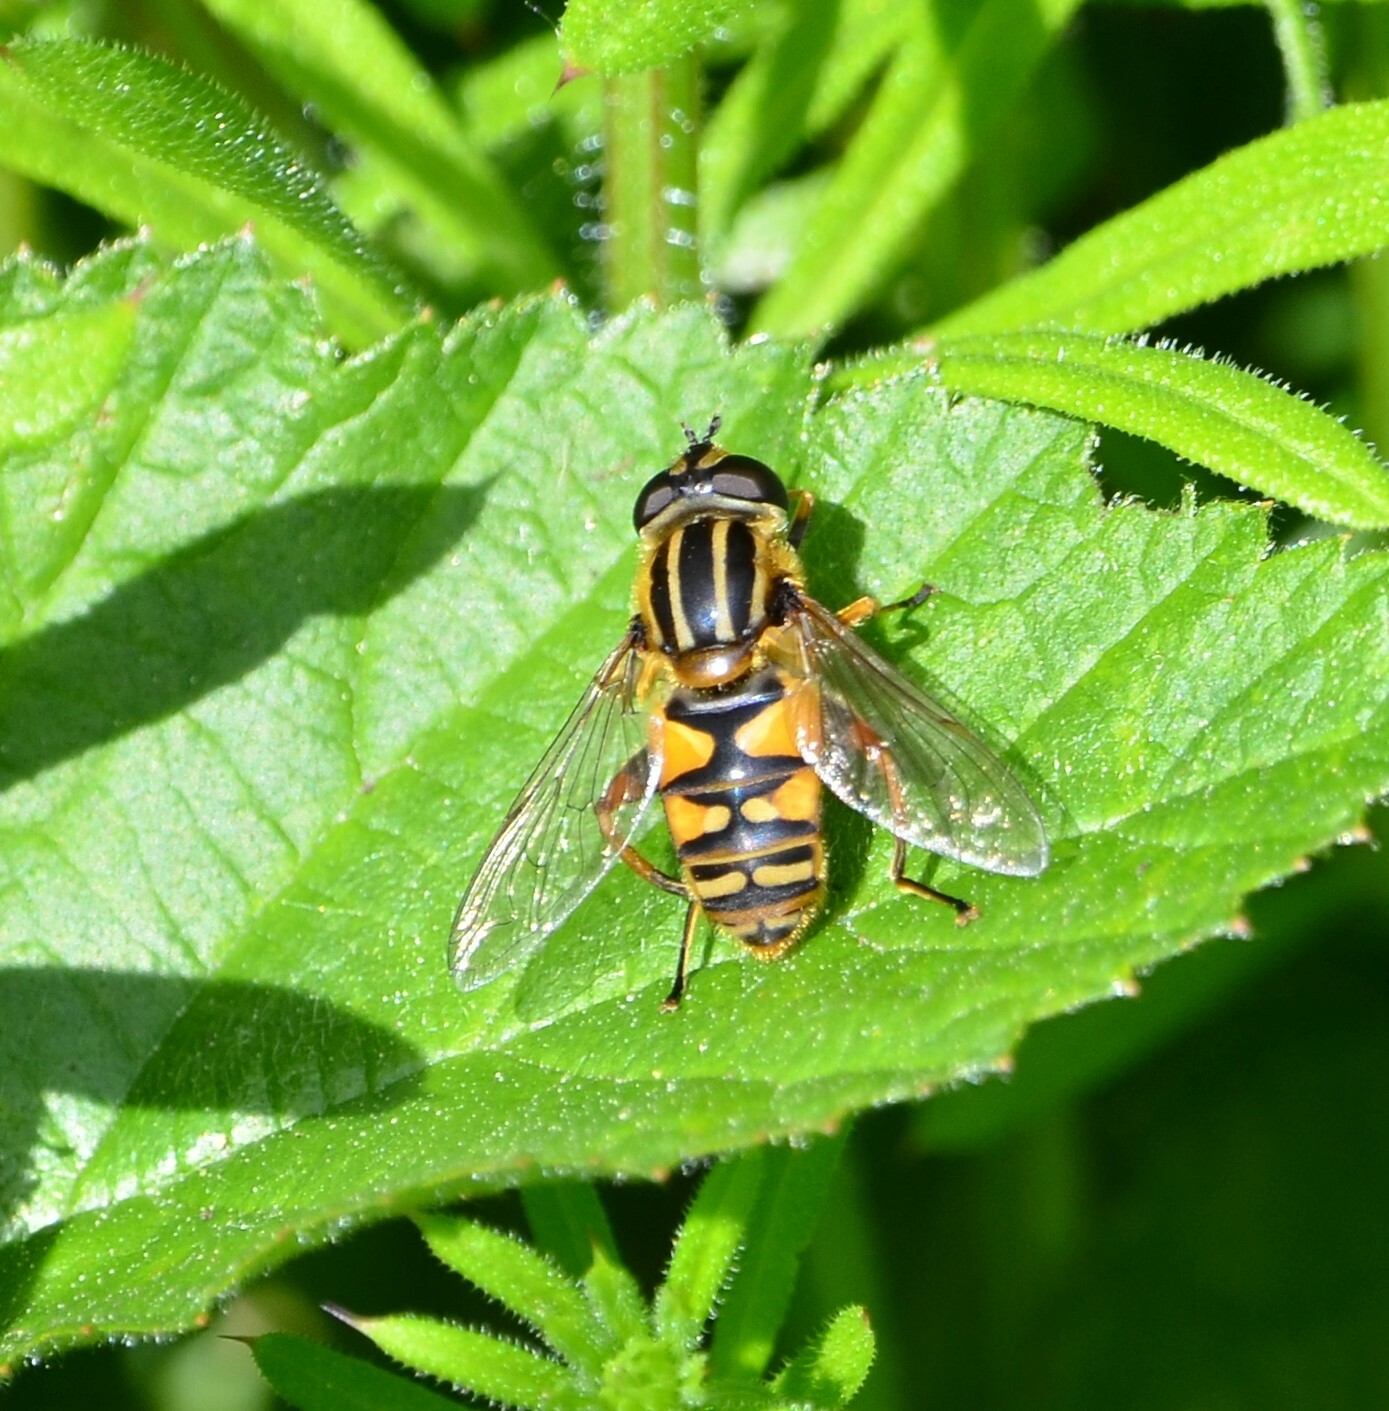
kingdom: Animalia
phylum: Arthropoda
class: Insecta
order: Diptera
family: Syrphidae
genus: Helophilus
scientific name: Helophilus pendulus
